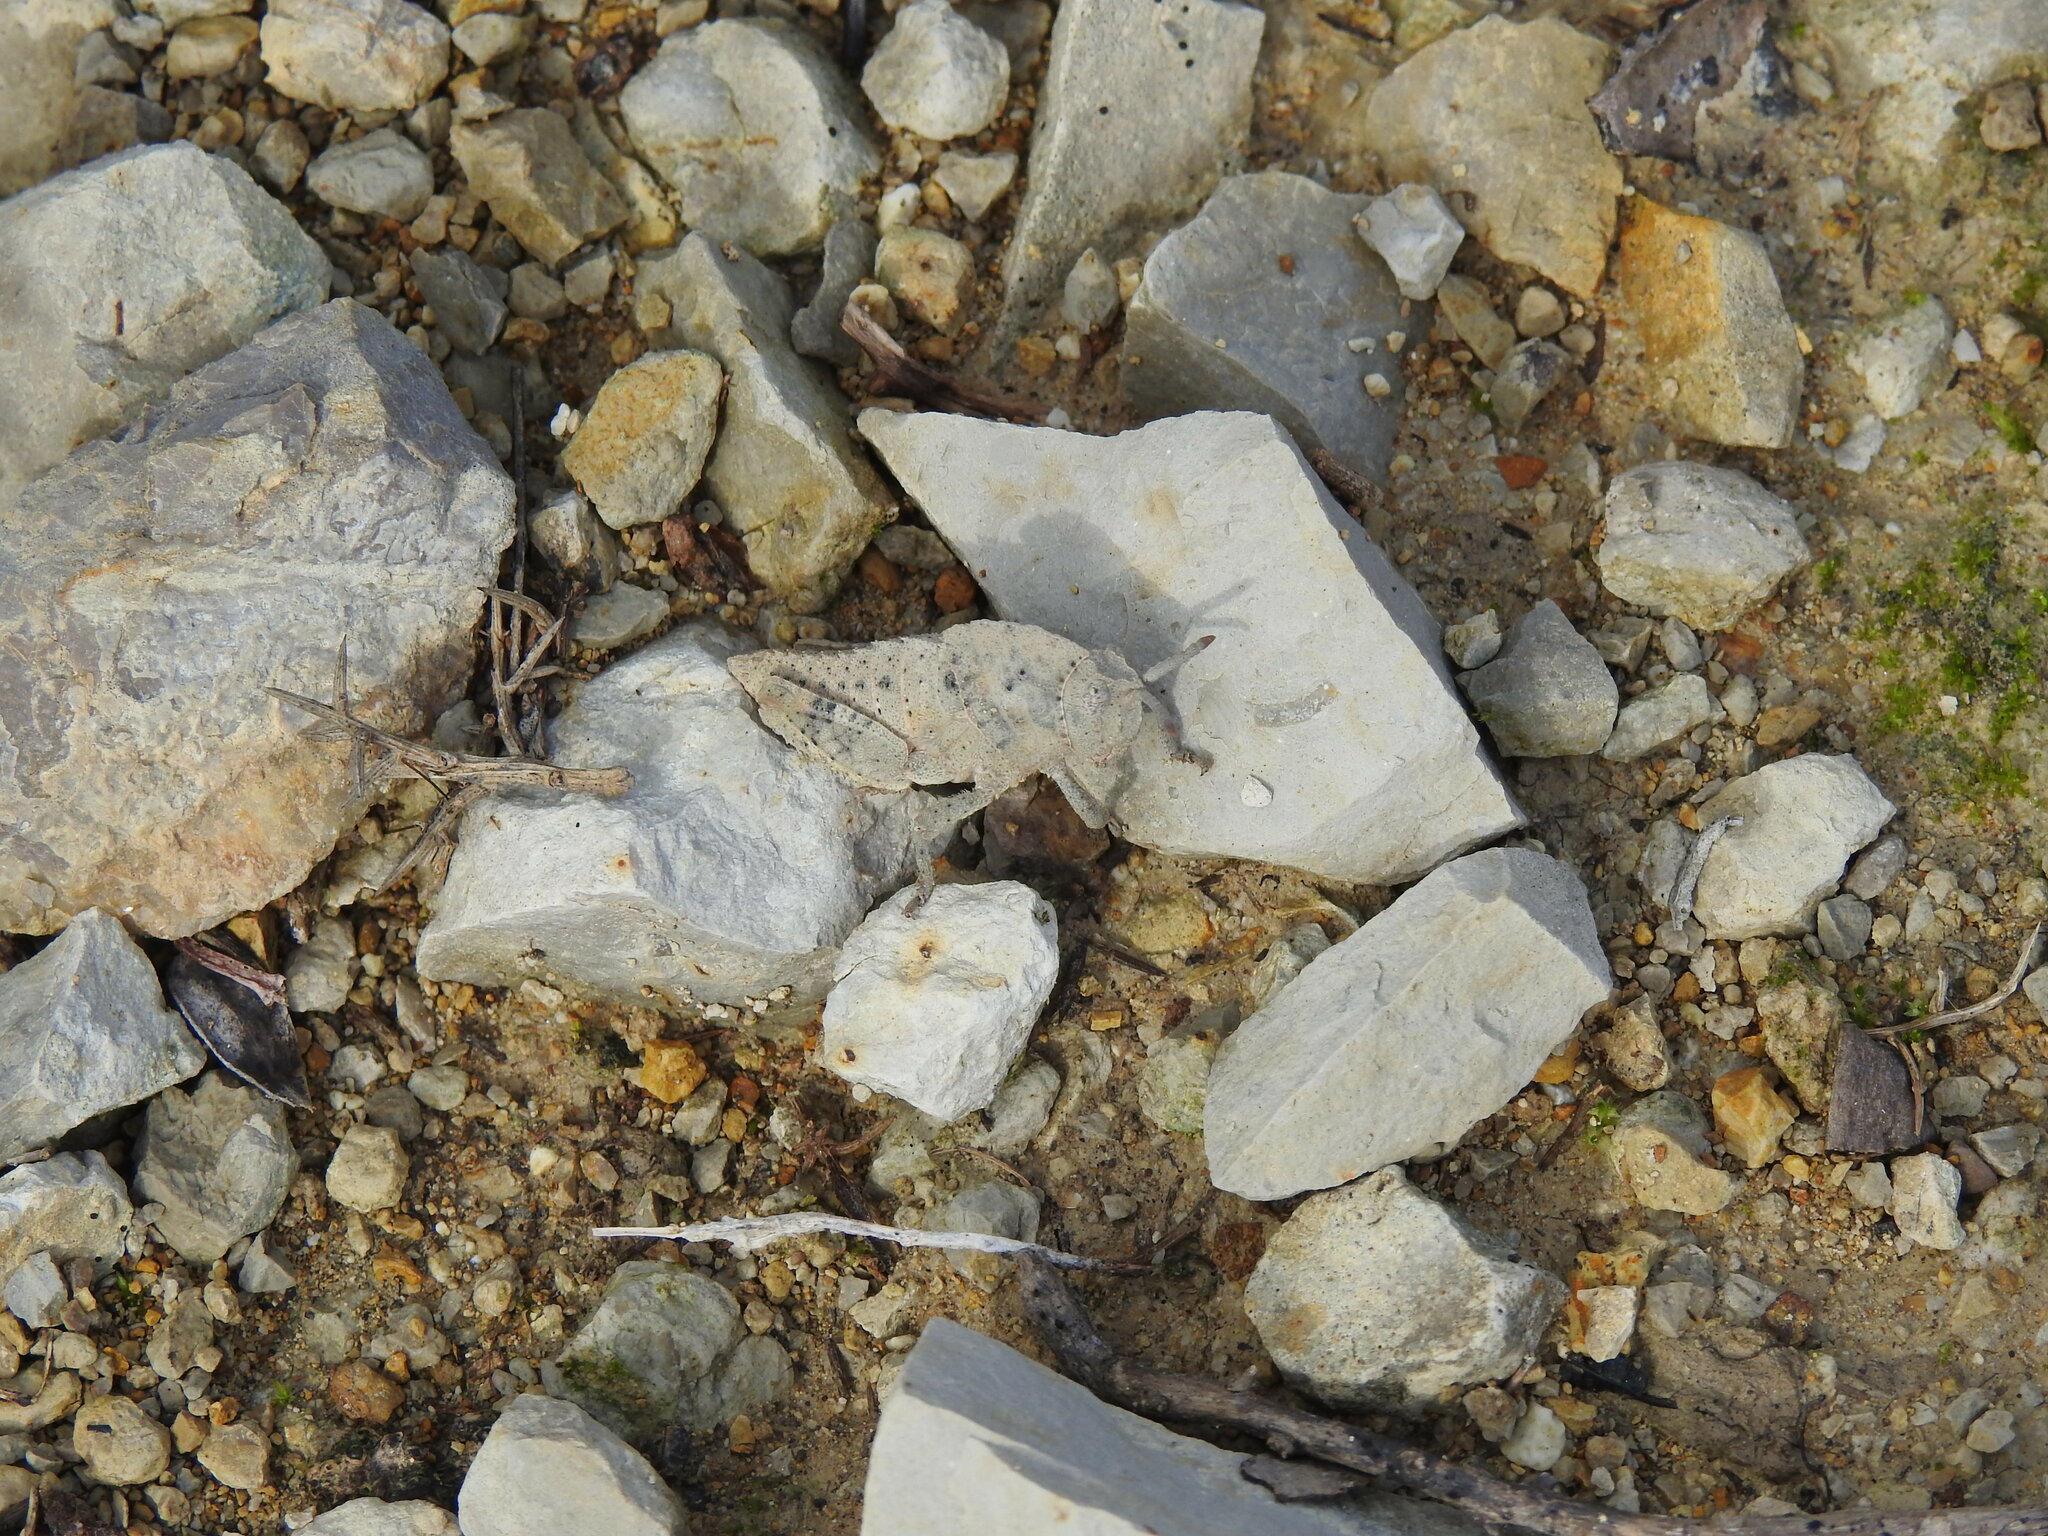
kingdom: Animalia
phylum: Arthropoda
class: Insecta
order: Orthoptera
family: Pamphagidae
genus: Ocnerodes
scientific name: Ocnerodes fallaciosus
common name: Misleading stone grasshopper
